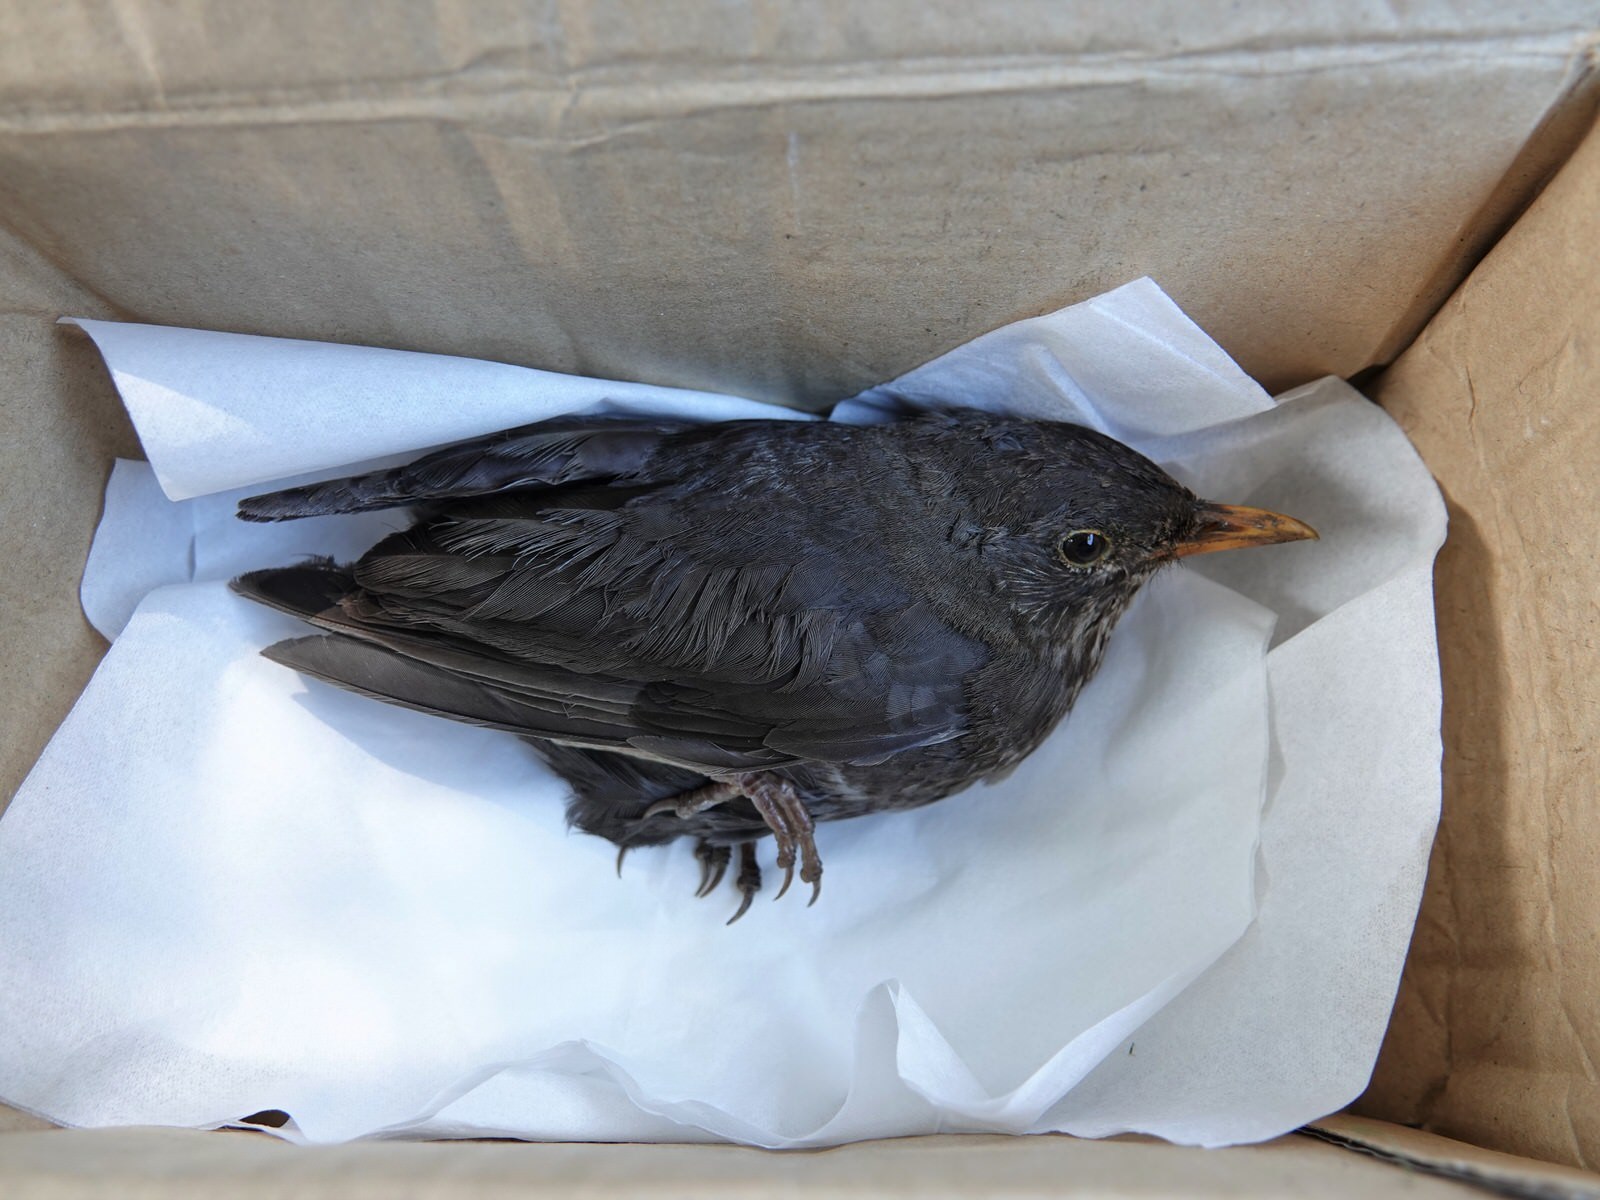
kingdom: Animalia
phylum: Chordata
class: Aves
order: Passeriformes
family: Turdidae
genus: Turdus
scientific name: Turdus merula
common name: Common blackbird
